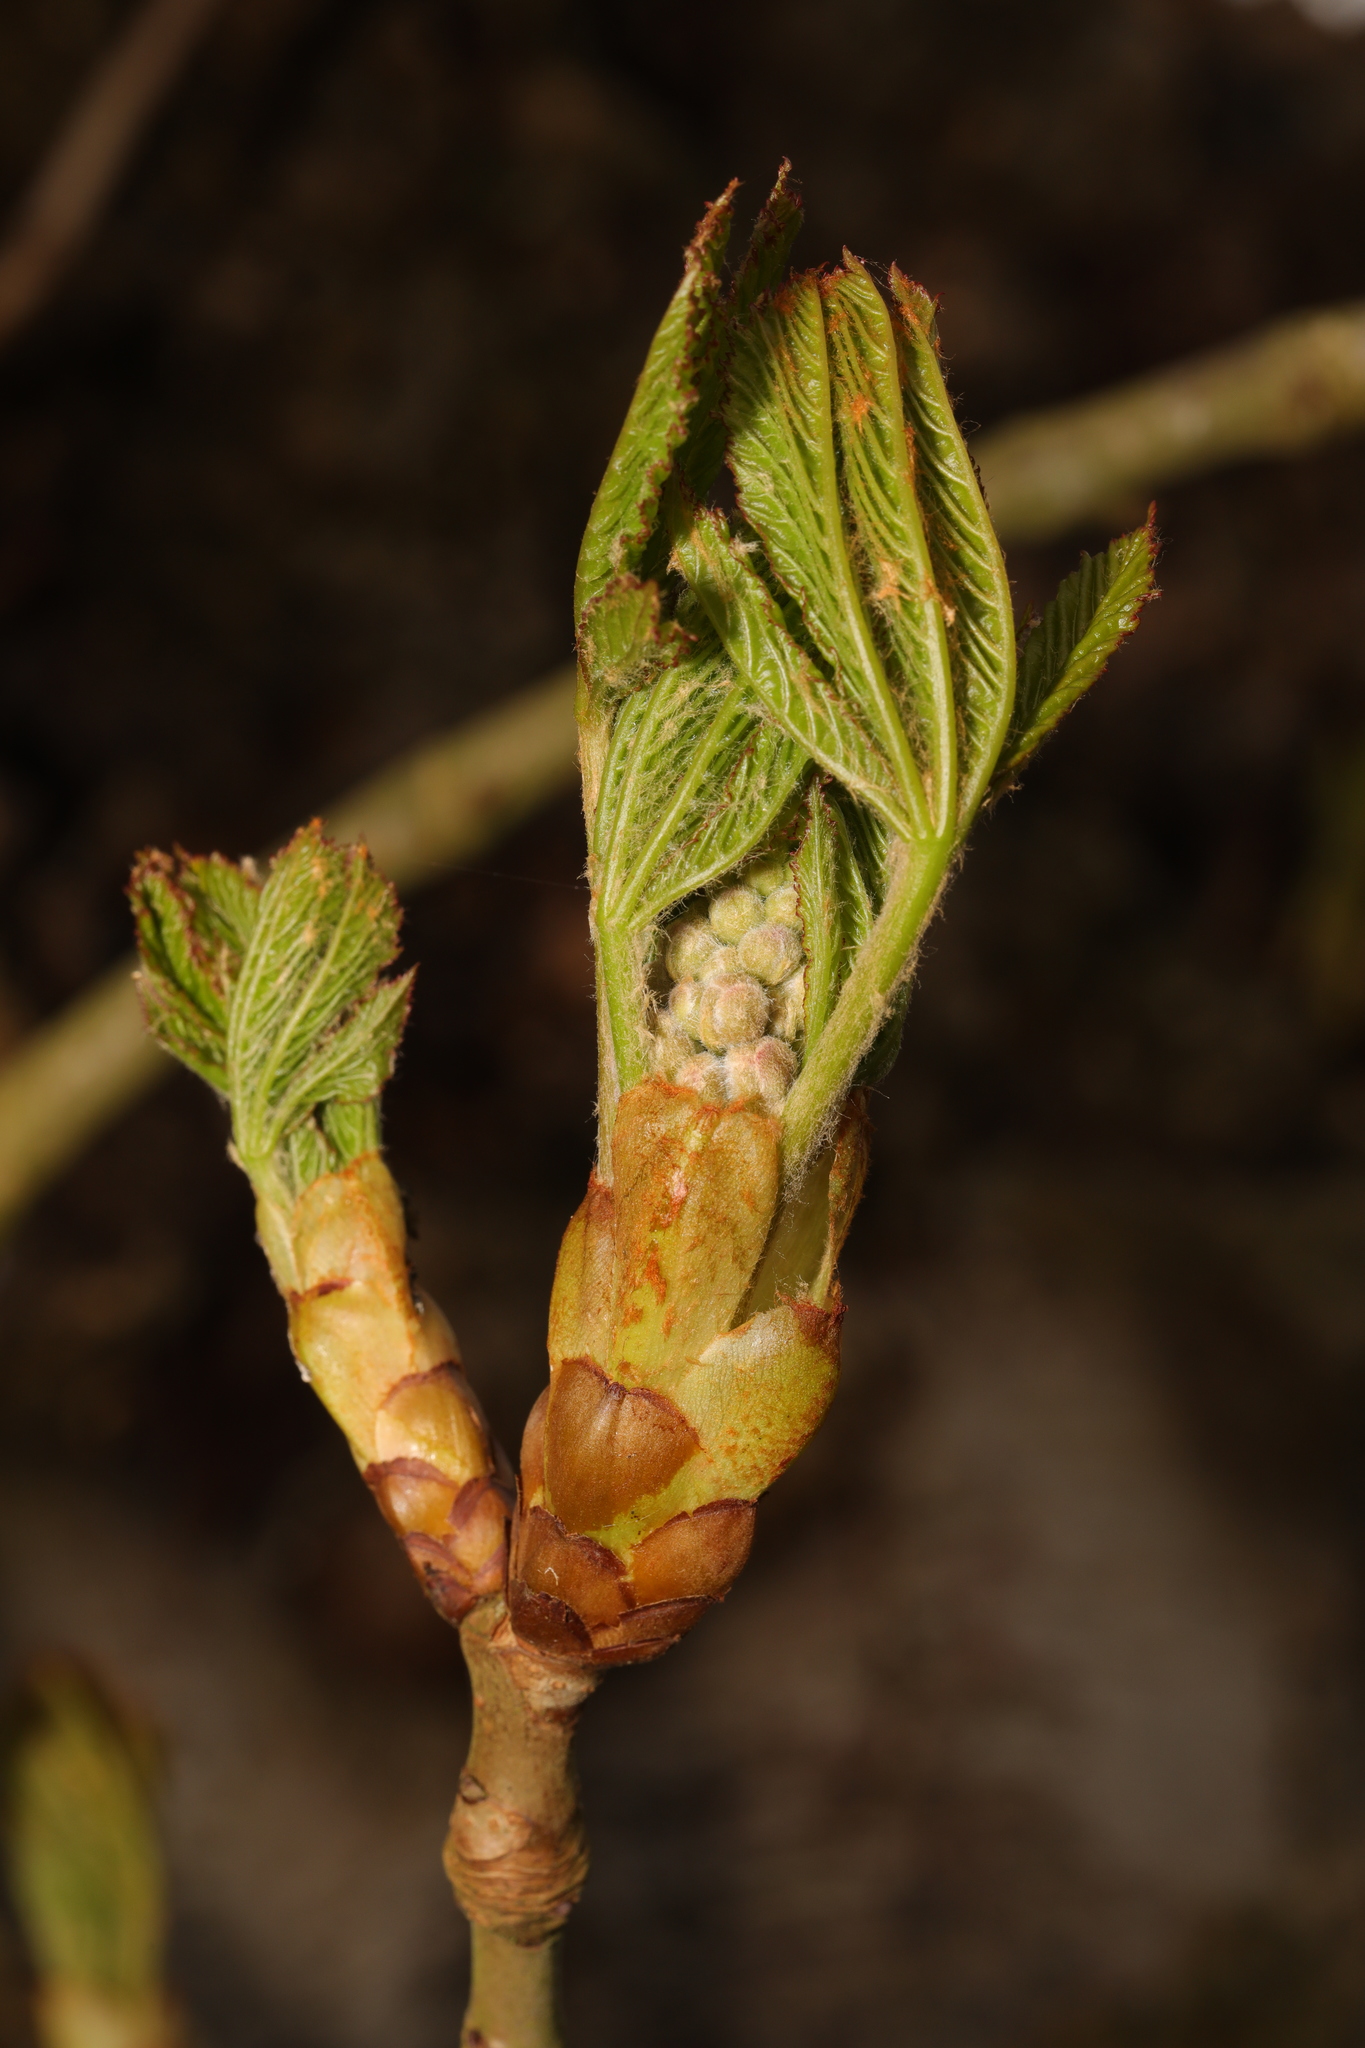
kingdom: Plantae
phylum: Tracheophyta
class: Magnoliopsida
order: Sapindales
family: Sapindaceae
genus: Aesculus
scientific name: Aesculus hippocastanum
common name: Horse-chestnut
